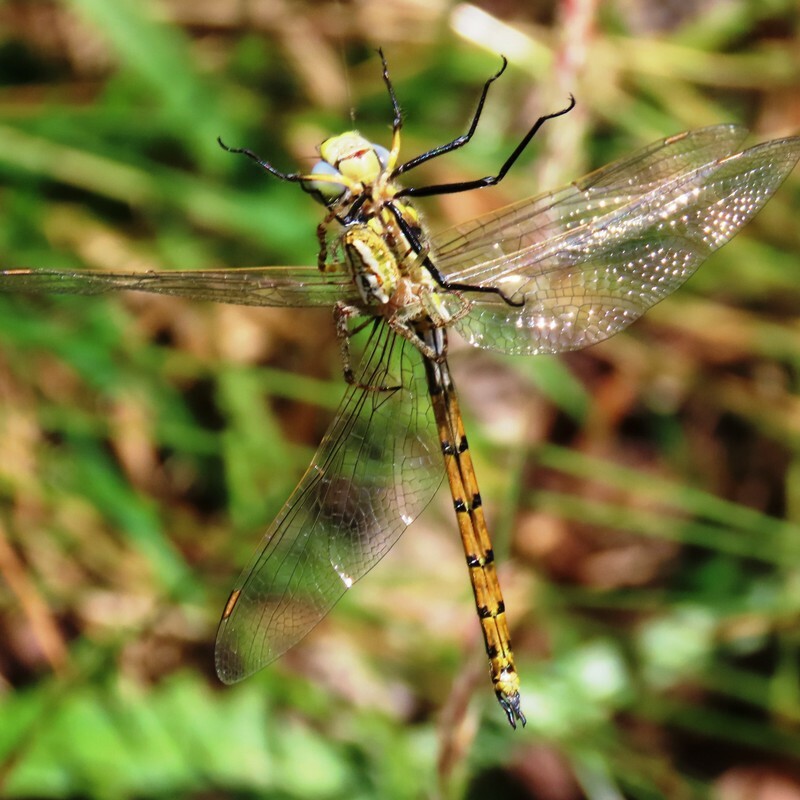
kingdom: Animalia
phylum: Arthropoda
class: Insecta
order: Odonata
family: Corduliidae
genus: Hemicordulia
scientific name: Hemicordulia tau
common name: Tau emerald
